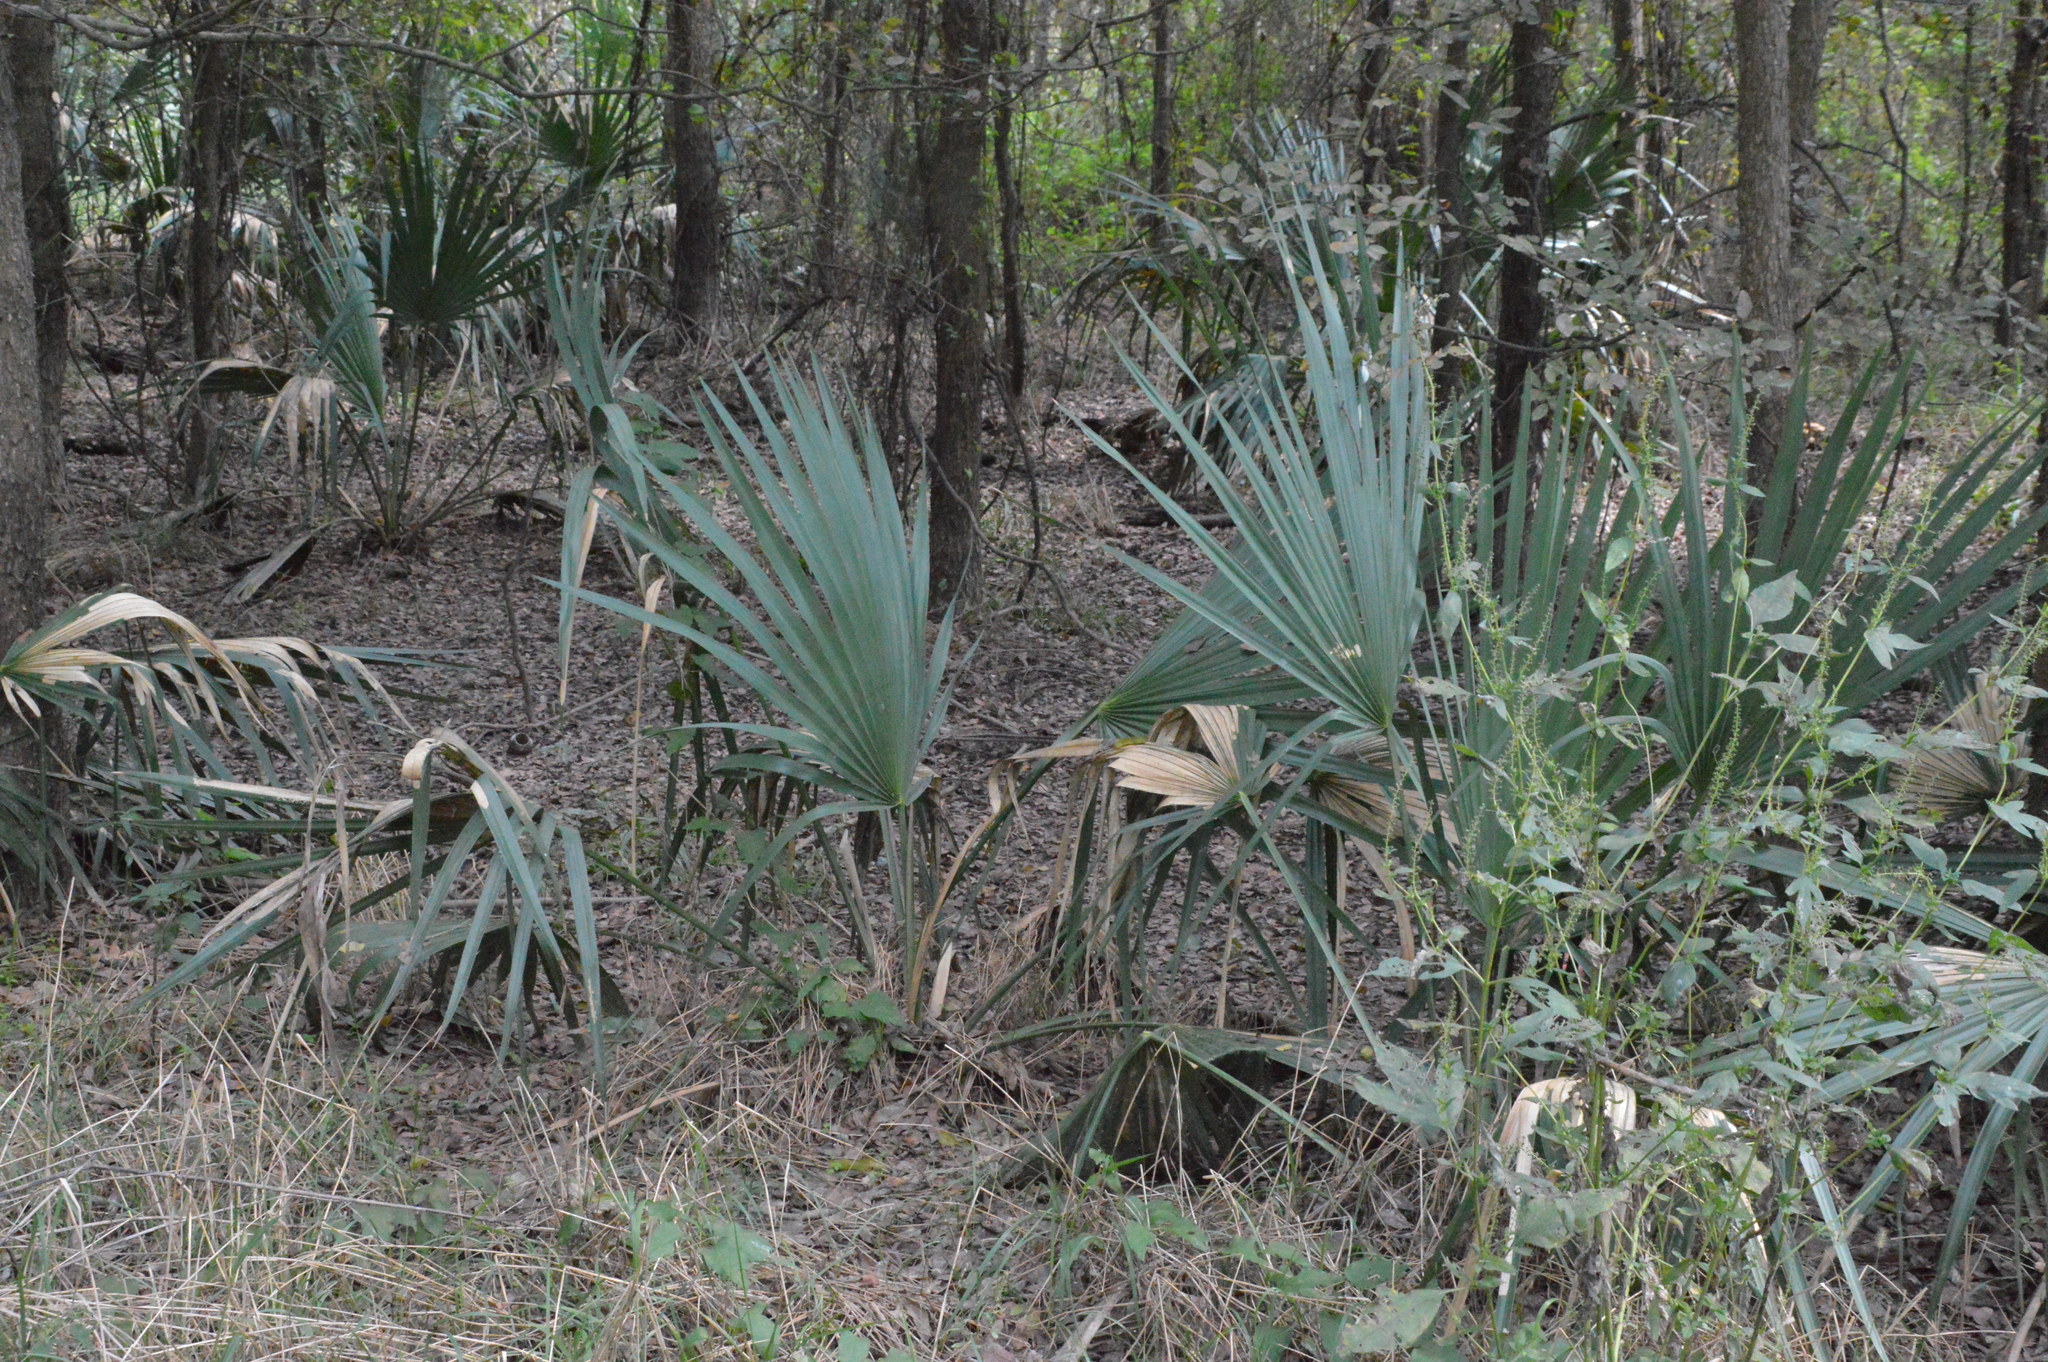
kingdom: Plantae
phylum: Tracheophyta
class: Liliopsida
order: Arecales
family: Arecaceae
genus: Sabal
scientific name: Sabal minor
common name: Dwarf palmetto
